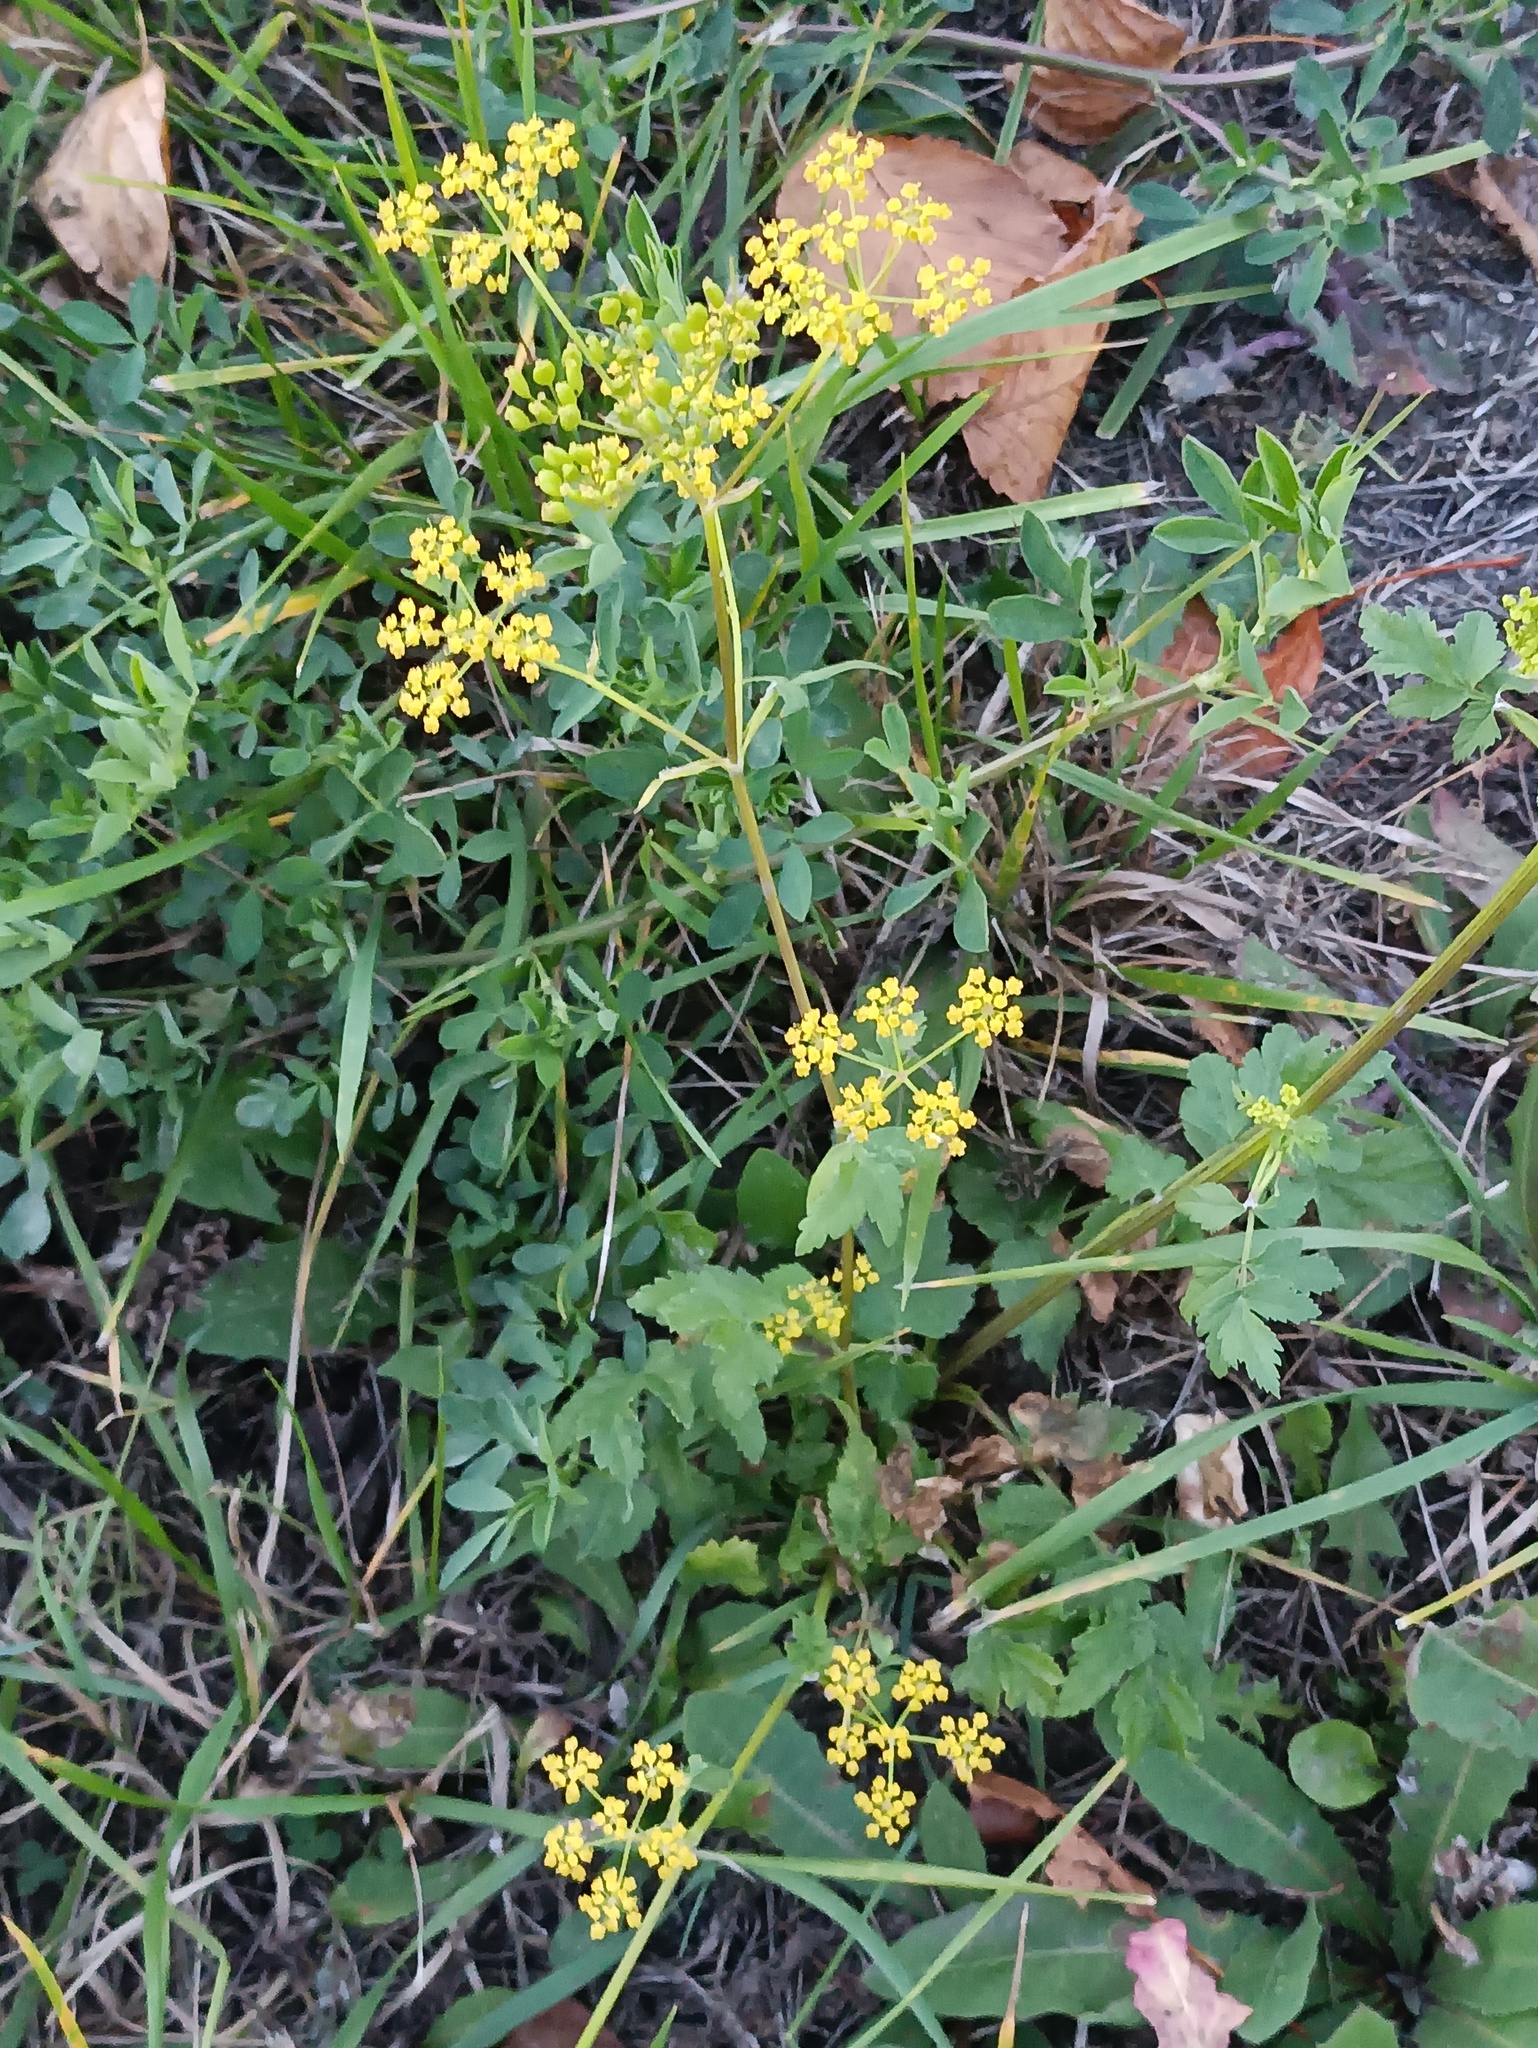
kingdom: Plantae
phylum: Tracheophyta
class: Magnoliopsida
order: Apiales
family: Apiaceae
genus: Pastinaca
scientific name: Pastinaca sativa
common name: Wild parsnip
